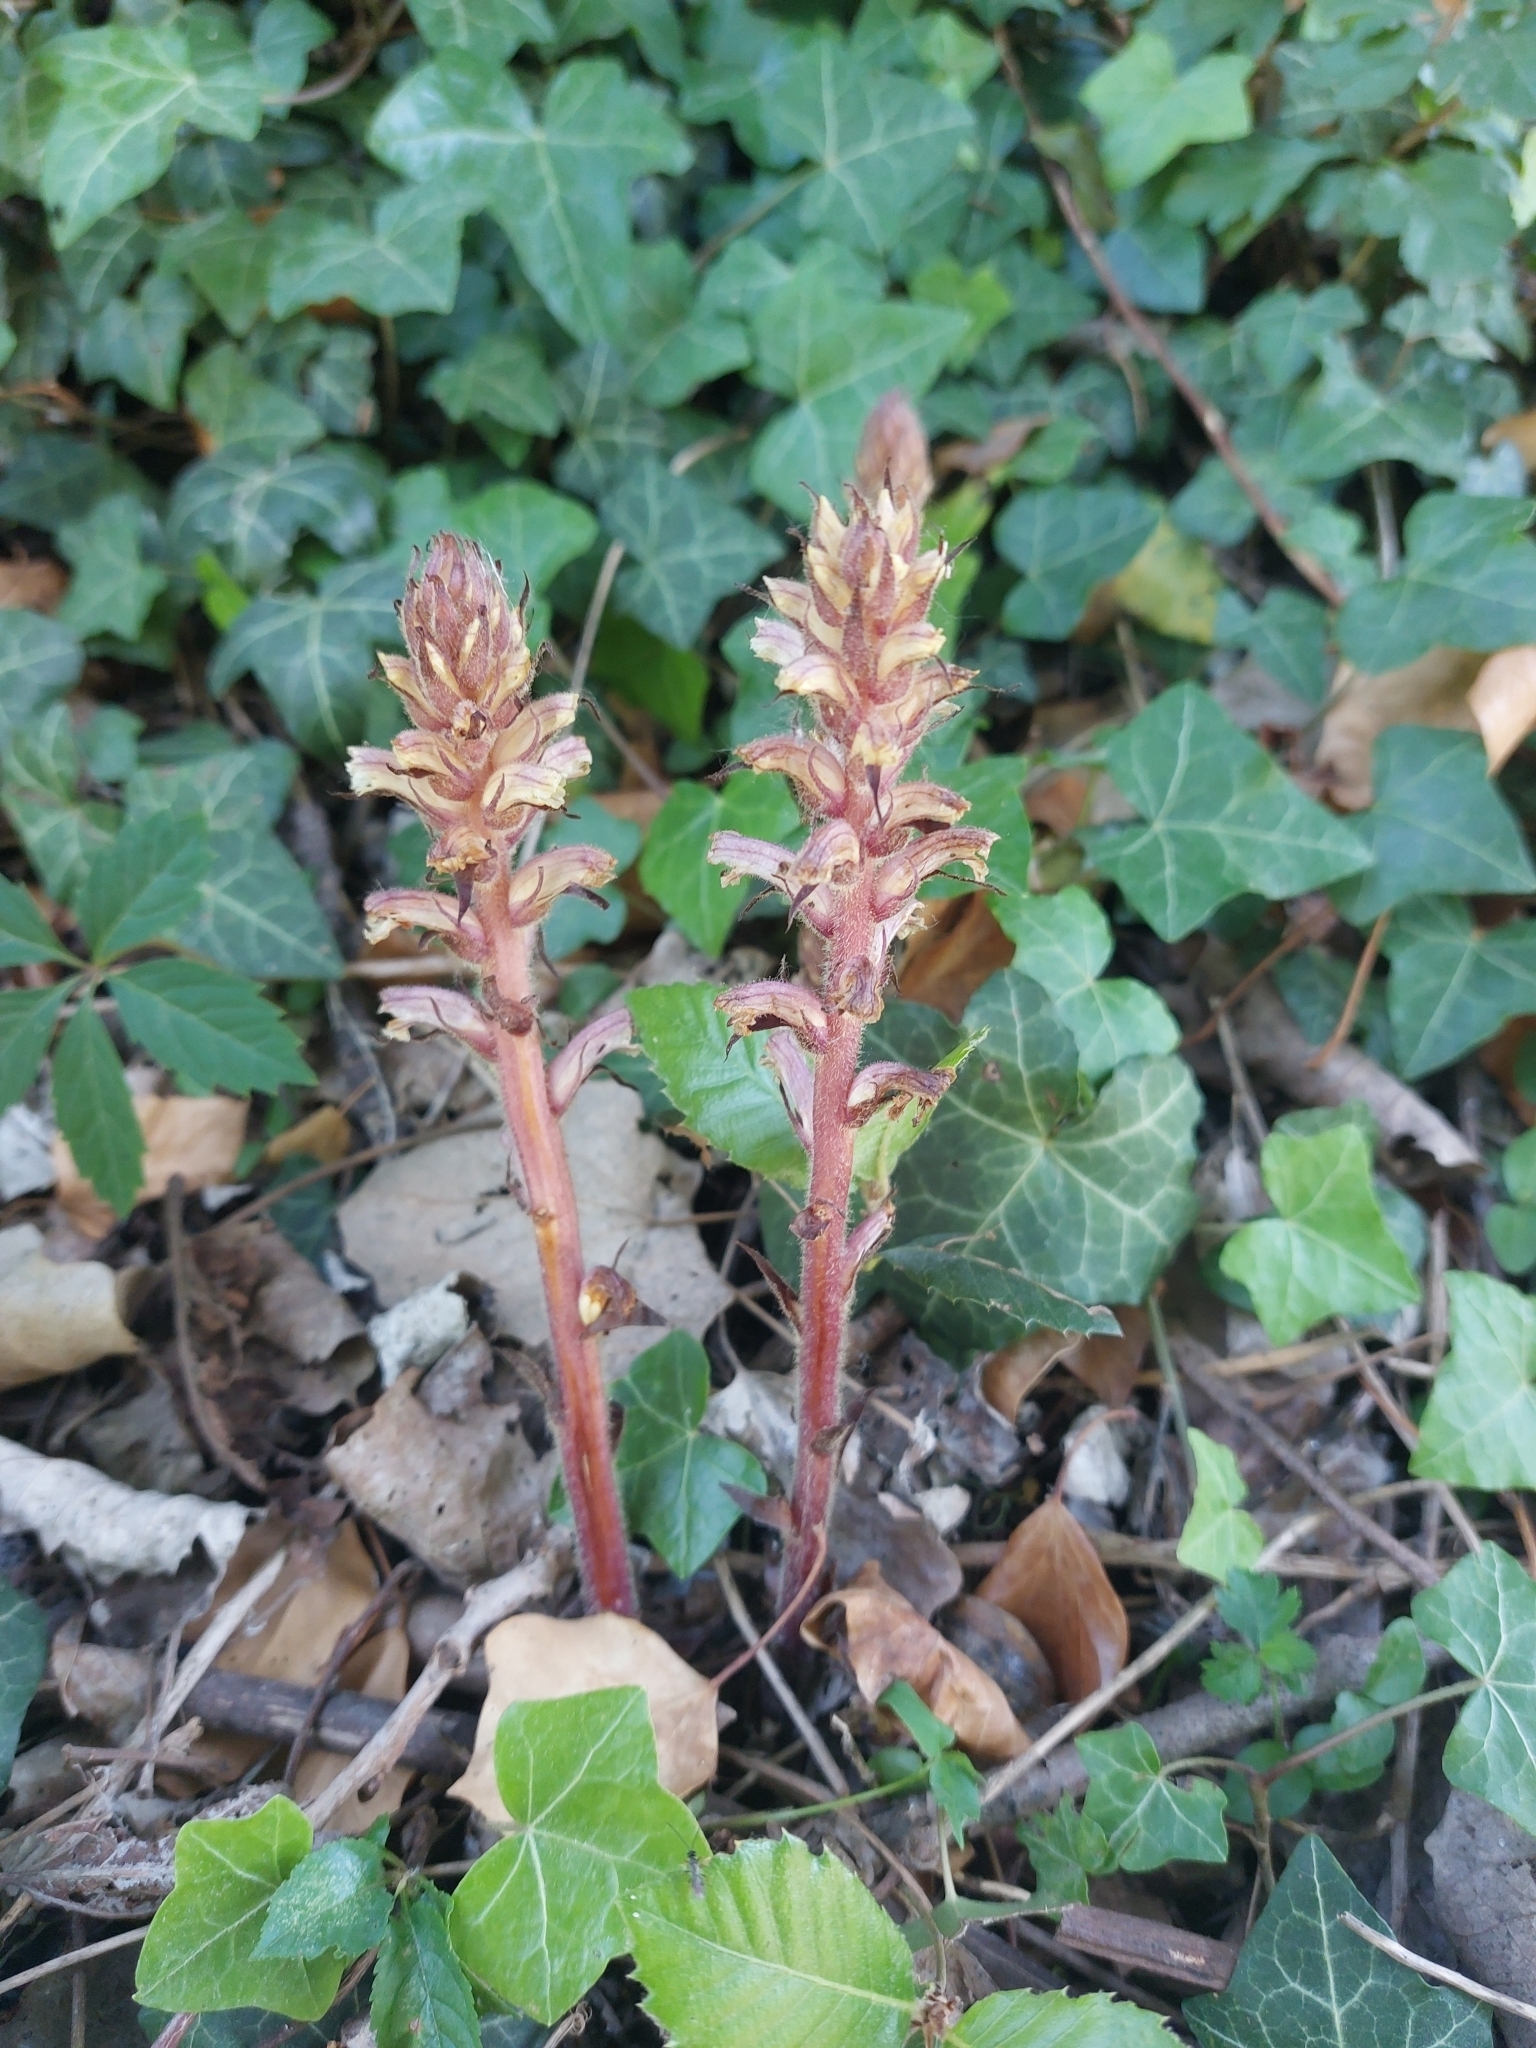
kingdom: Plantae
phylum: Tracheophyta
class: Magnoliopsida
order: Lamiales
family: Orobanchaceae
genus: Orobanche
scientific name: Orobanche hederae
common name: Ivy broomrape
